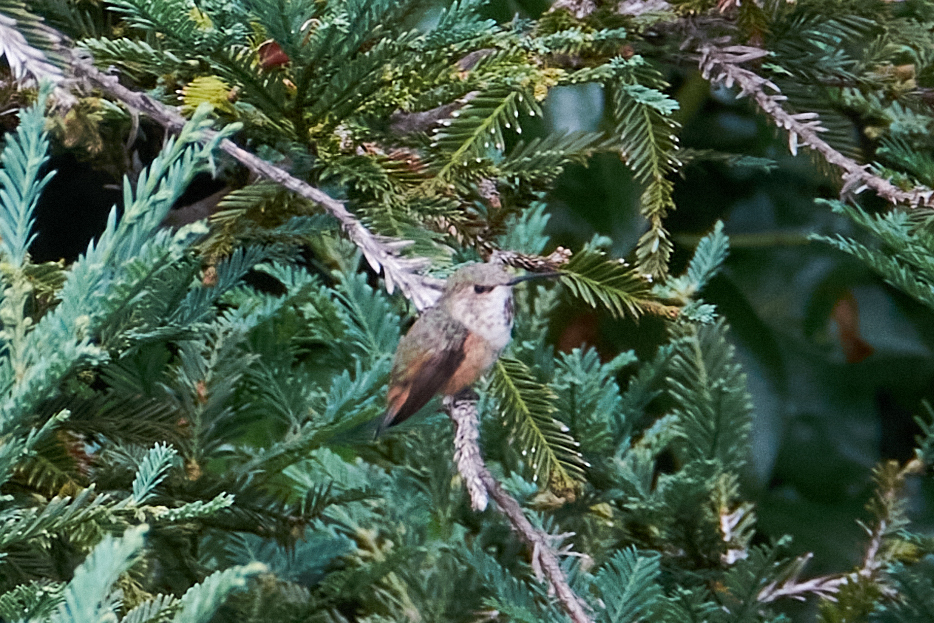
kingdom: Animalia
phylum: Chordata
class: Aves
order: Apodiformes
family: Trochilidae
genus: Selasphorus
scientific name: Selasphorus sasin
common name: Allen's hummingbird
